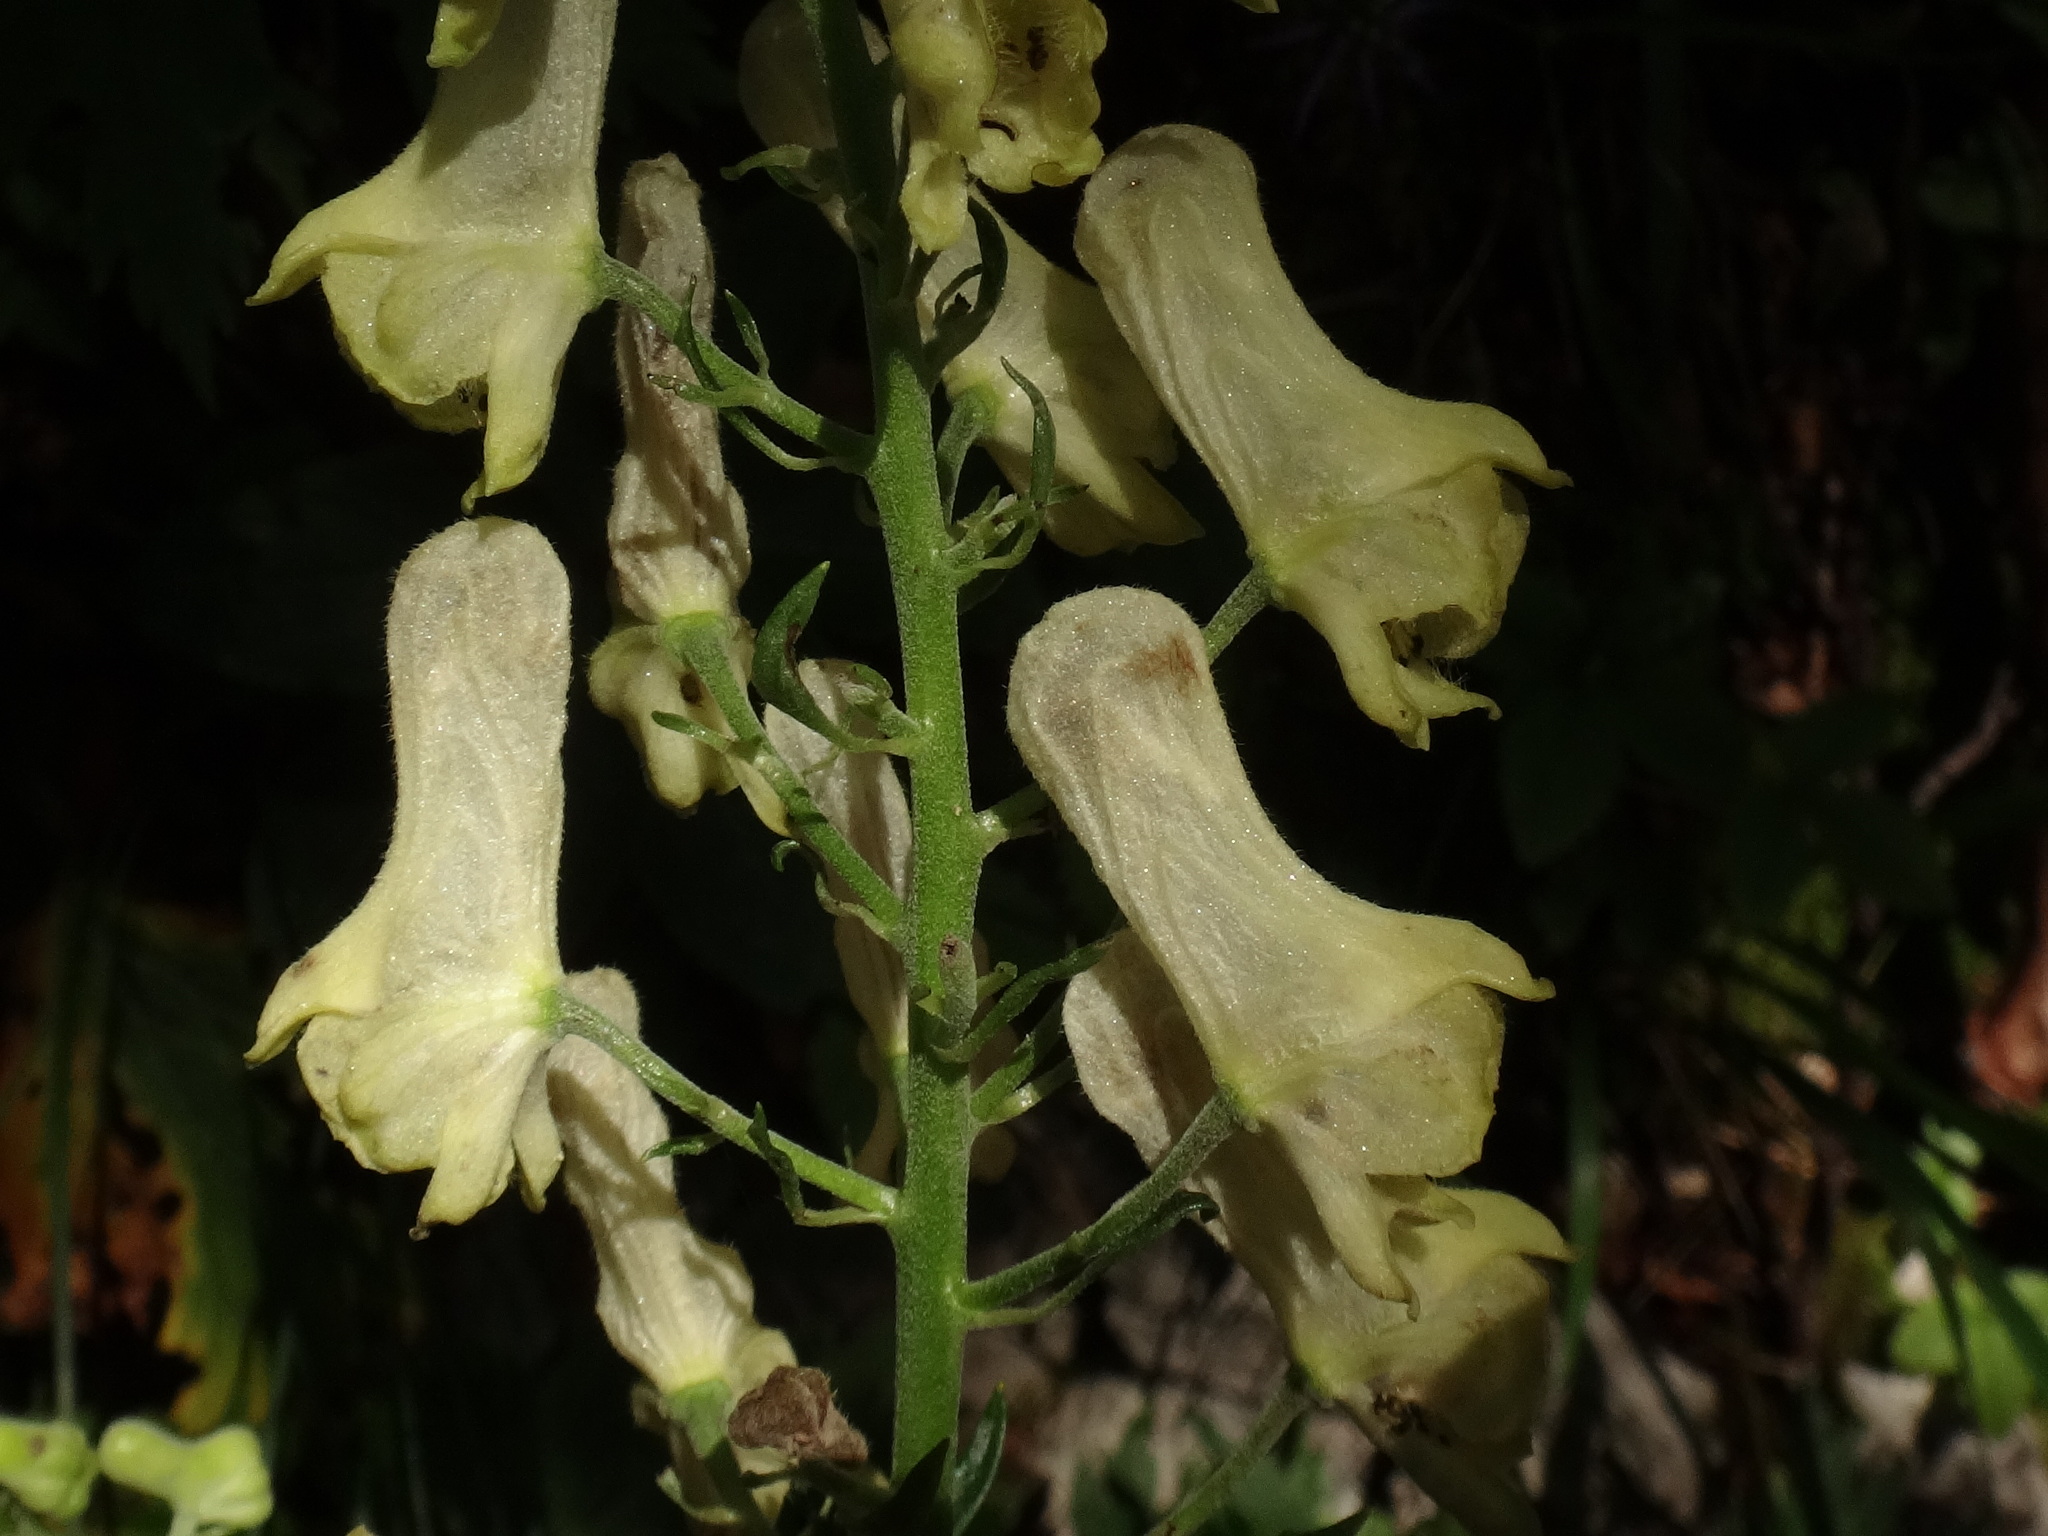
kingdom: Plantae
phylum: Tracheophyta
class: Magnoliopsida
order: Ranunculales
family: Ranunculaceae
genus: Aconitum
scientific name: Aconitum lycoctonum
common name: Wolf's-bane
